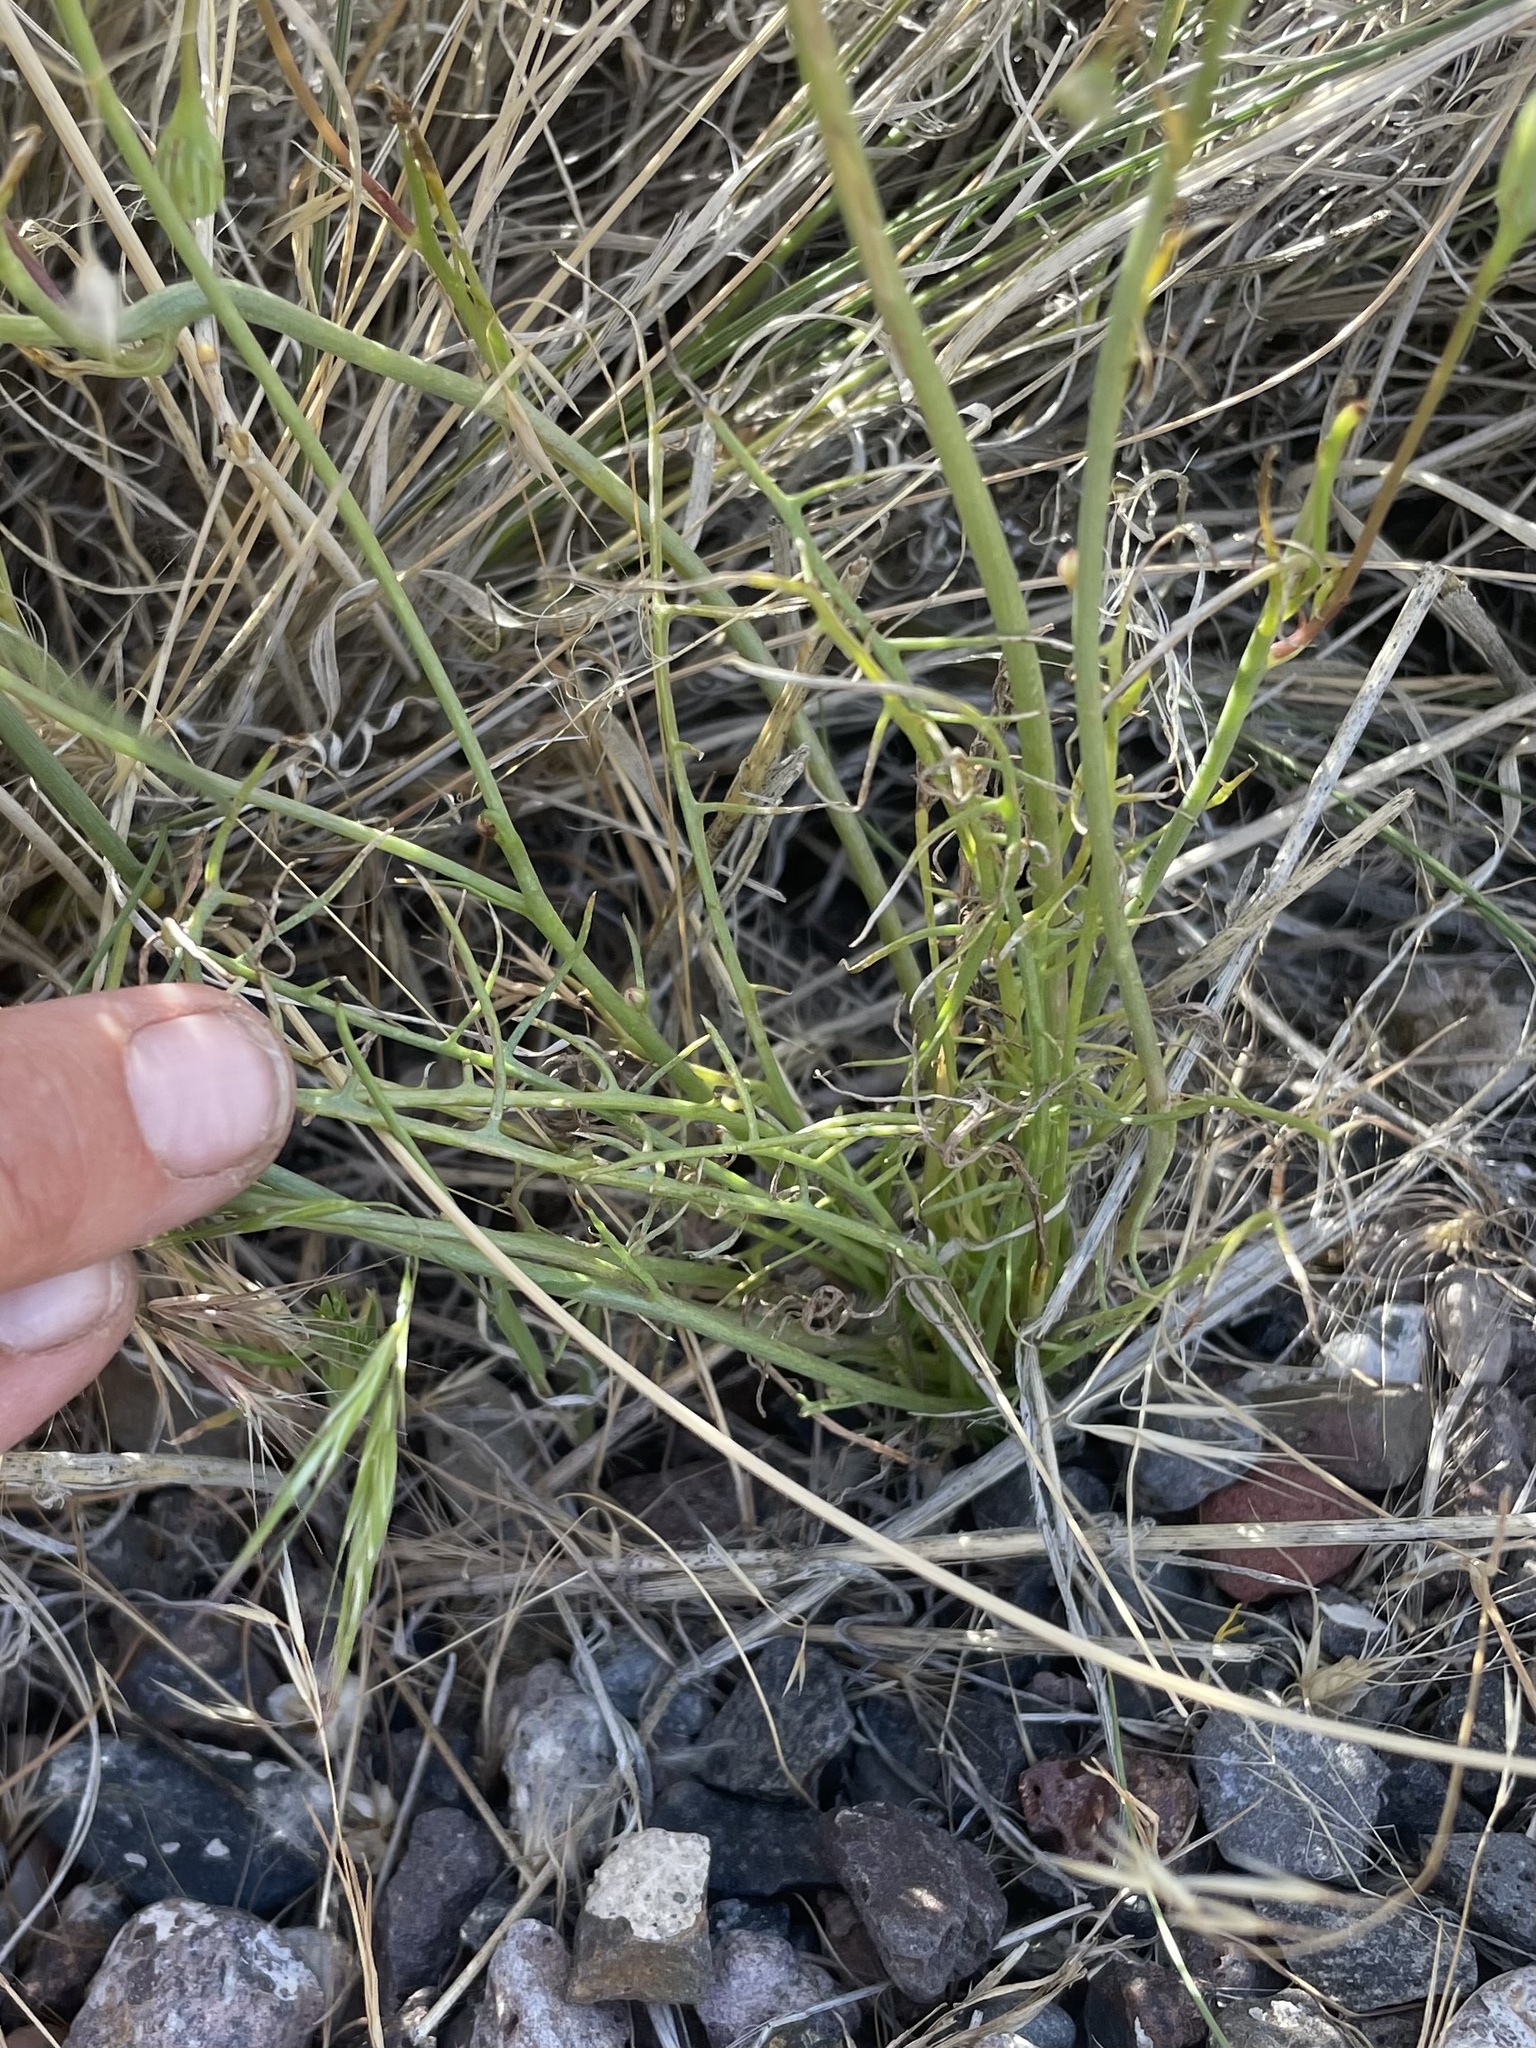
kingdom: Plantae
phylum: Tracheophyta
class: Magnoliopsida
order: Asterales
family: Asteraceae
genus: Malacothrix
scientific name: Malacothrix glabrata
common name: Smooth desert-dandelion
